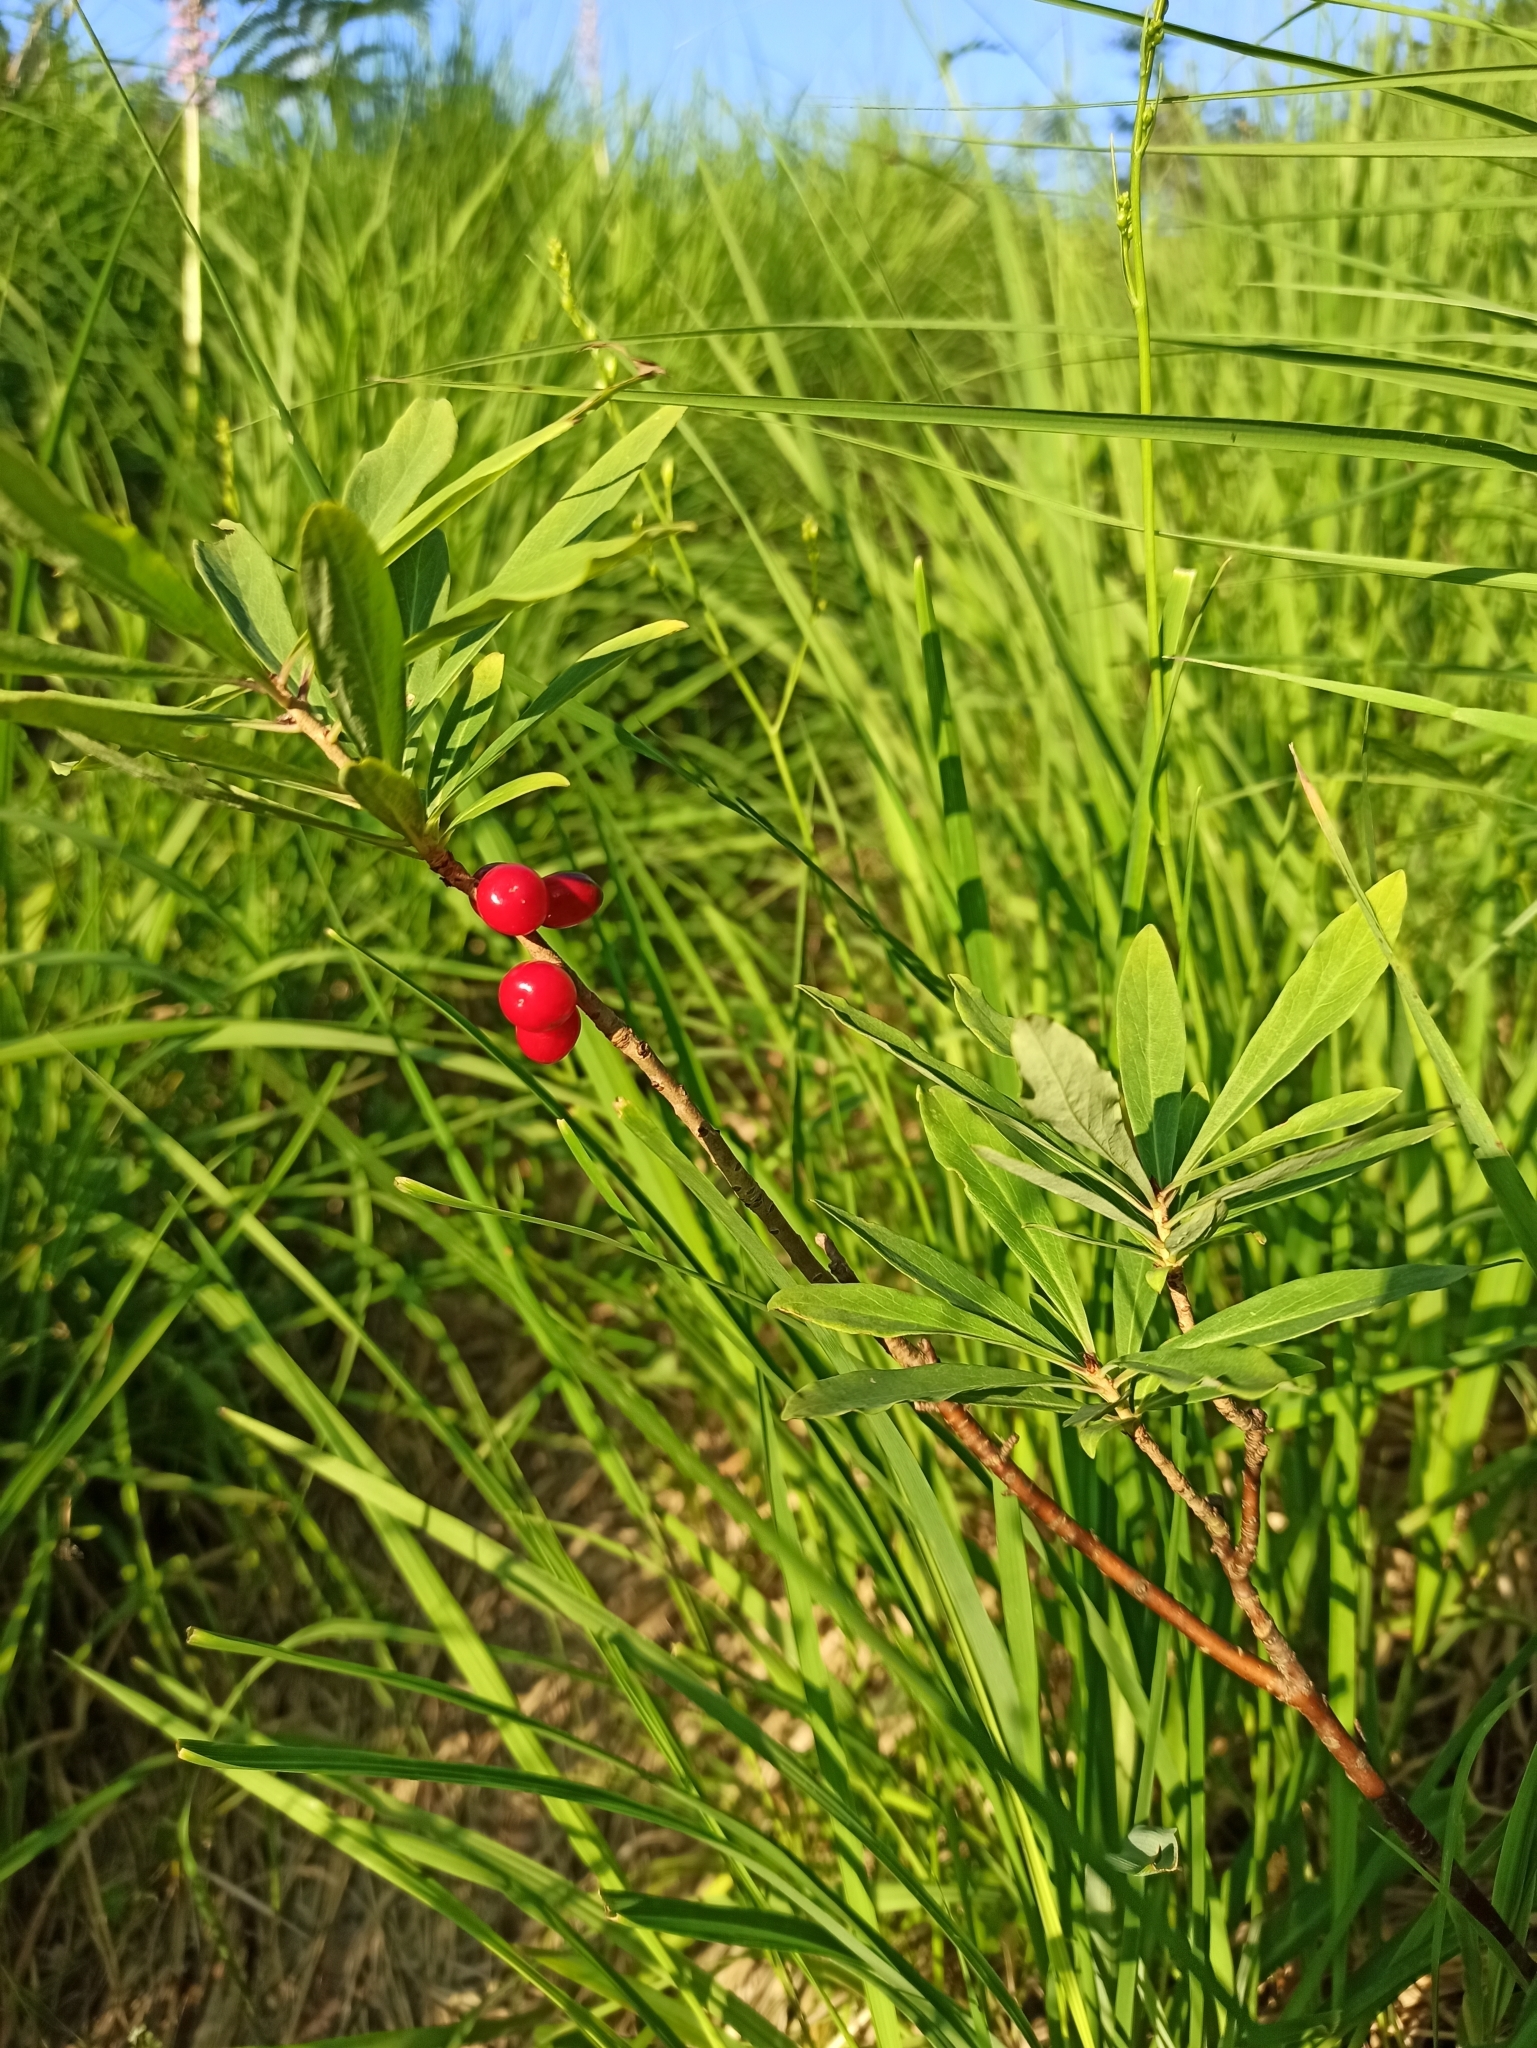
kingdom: Plantae
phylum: Tracheophyta
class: Magnoliopsida
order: Malvales
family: Thymelaeaceae
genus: Daphne
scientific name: Daphne mezereum
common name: Mezereon
